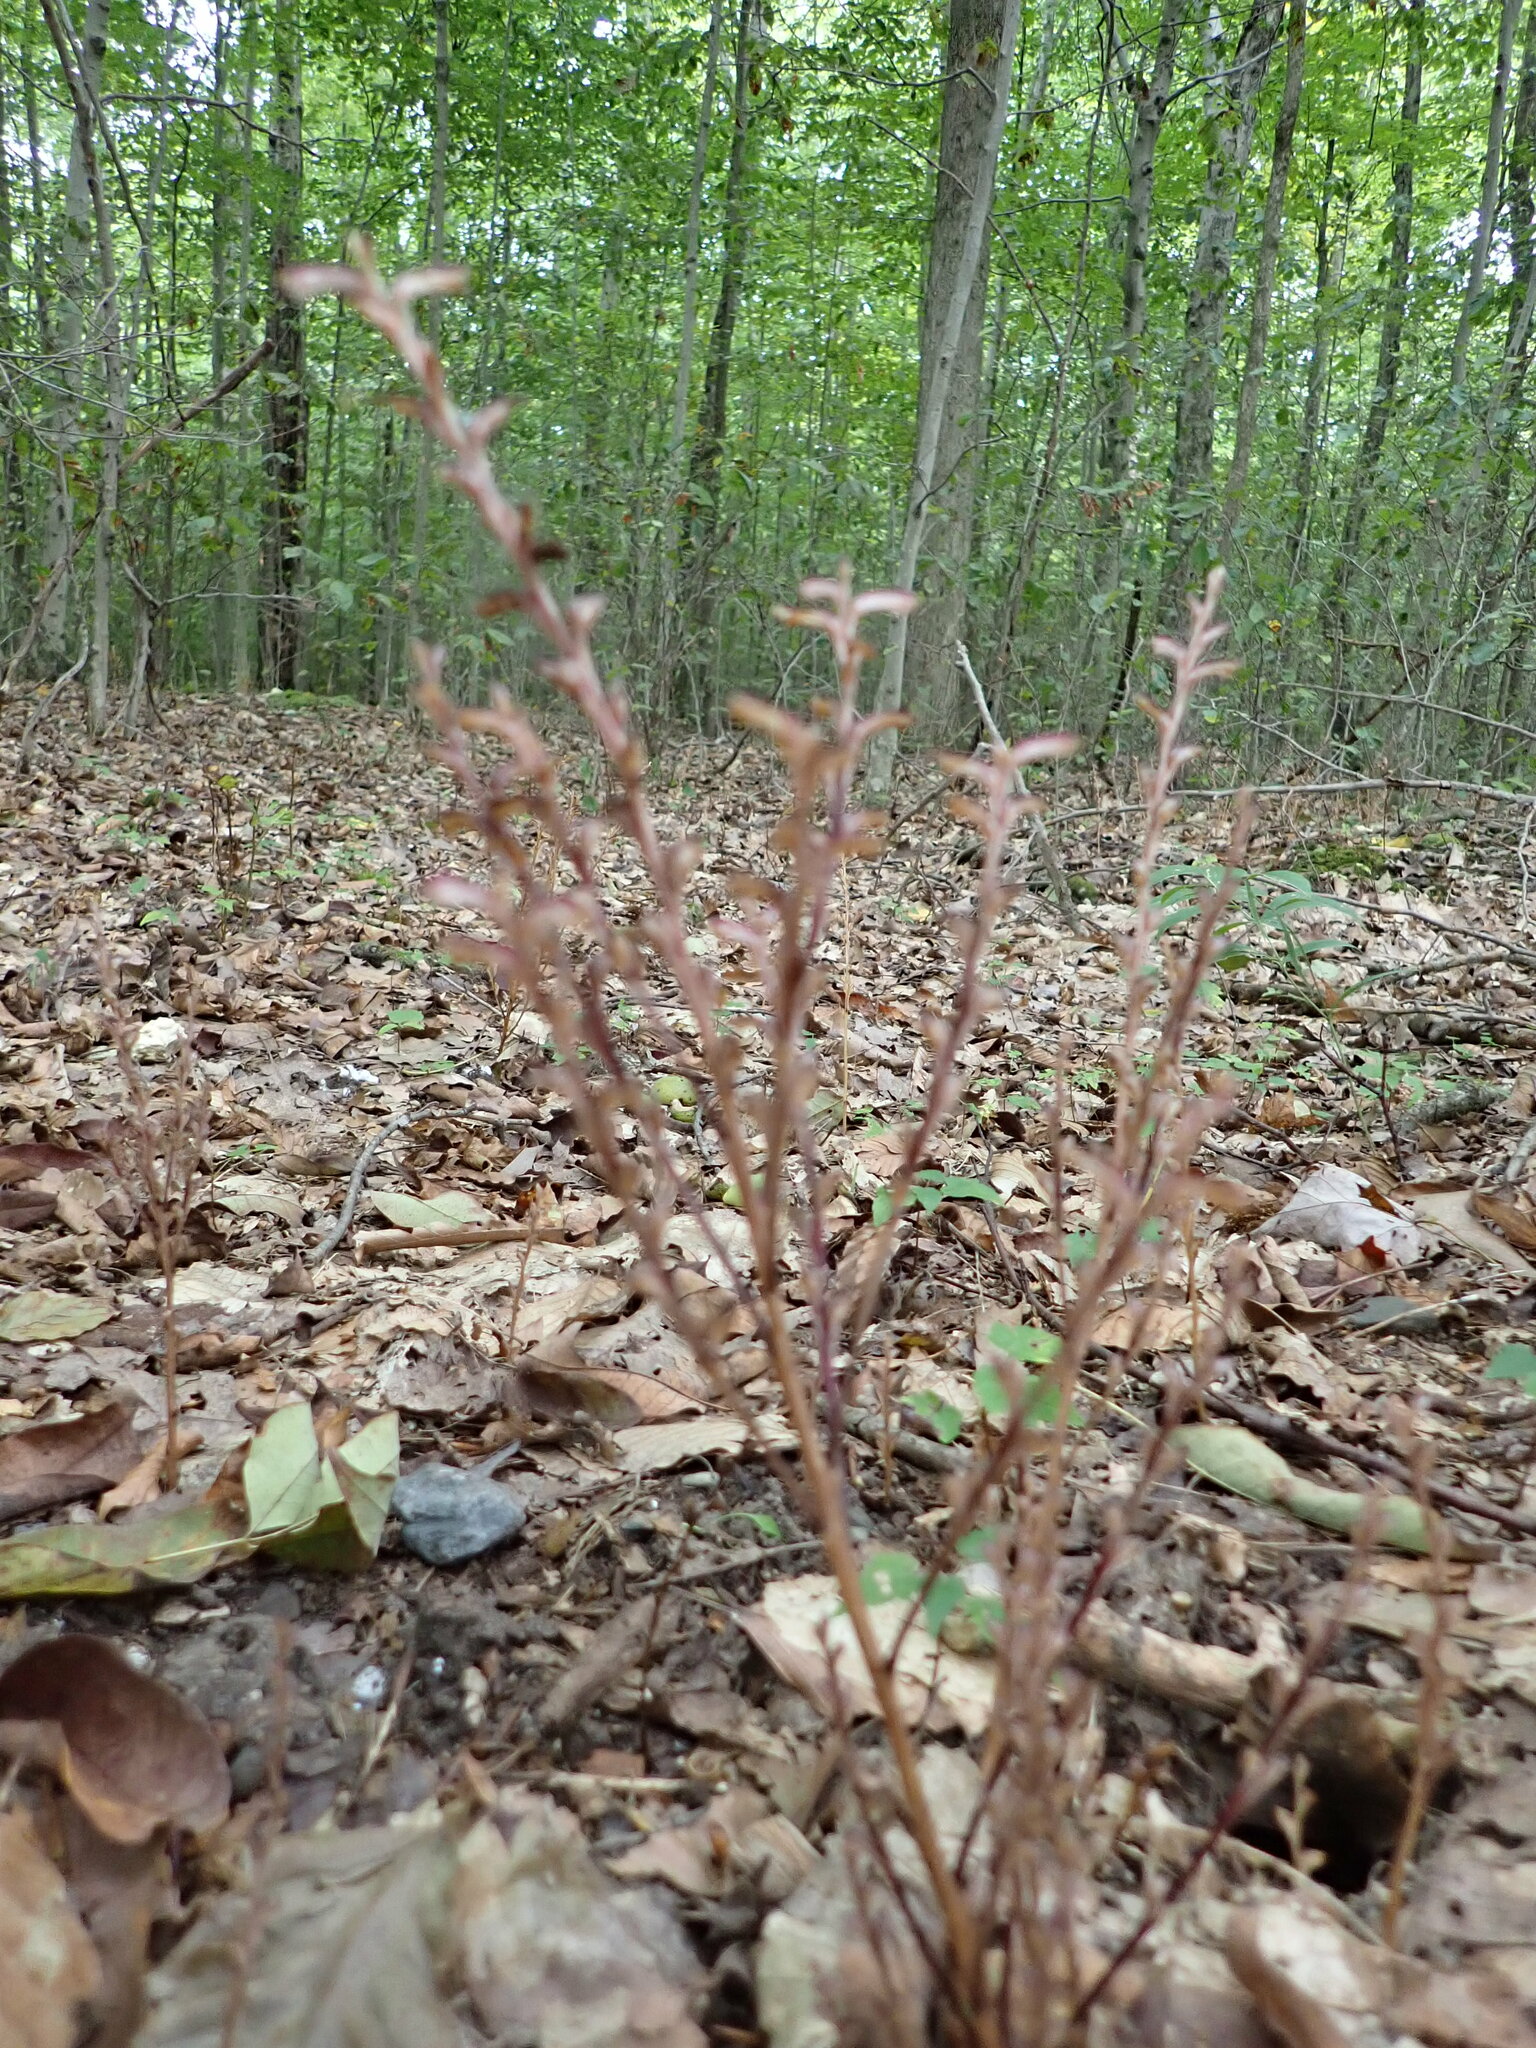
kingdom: Plantae
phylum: Tracheophyta
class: Magnoliopsida
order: Lamiales
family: Orobanchaceae
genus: Epifagus
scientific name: Epifagus virginiana
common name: Beechdrops
